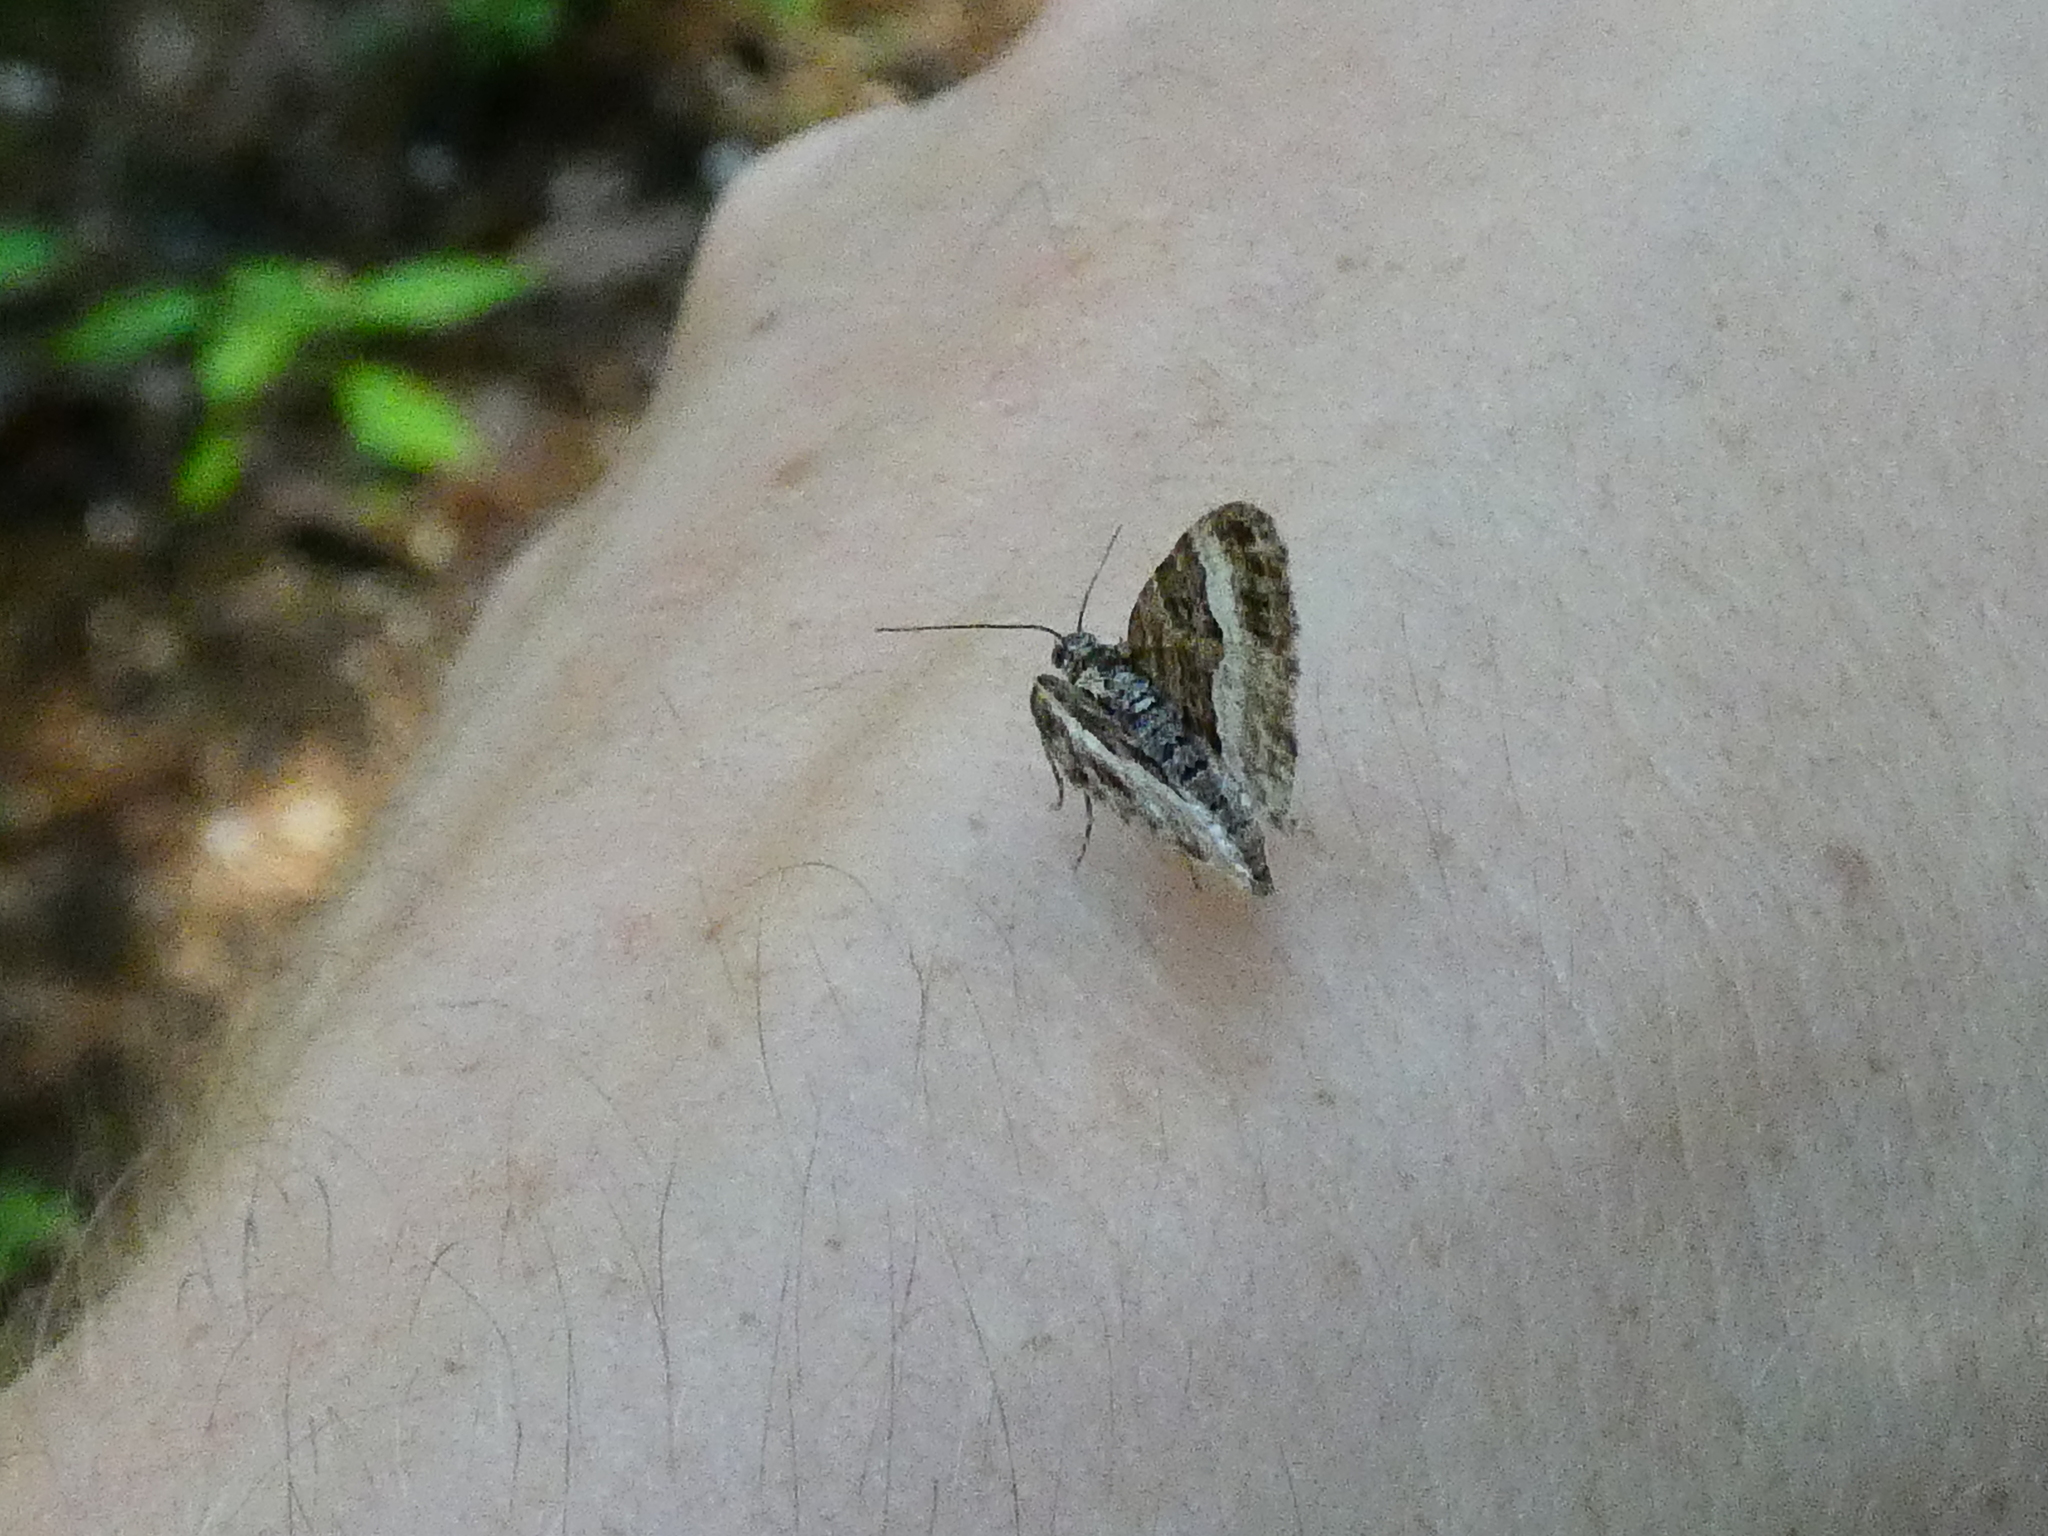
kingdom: Animalia
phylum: Arthropoda
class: Insecta
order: Lepidoptera
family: Geometridae
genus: Xanthorhoe
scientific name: Xanthorhoe biriviata
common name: Balsam carpet
